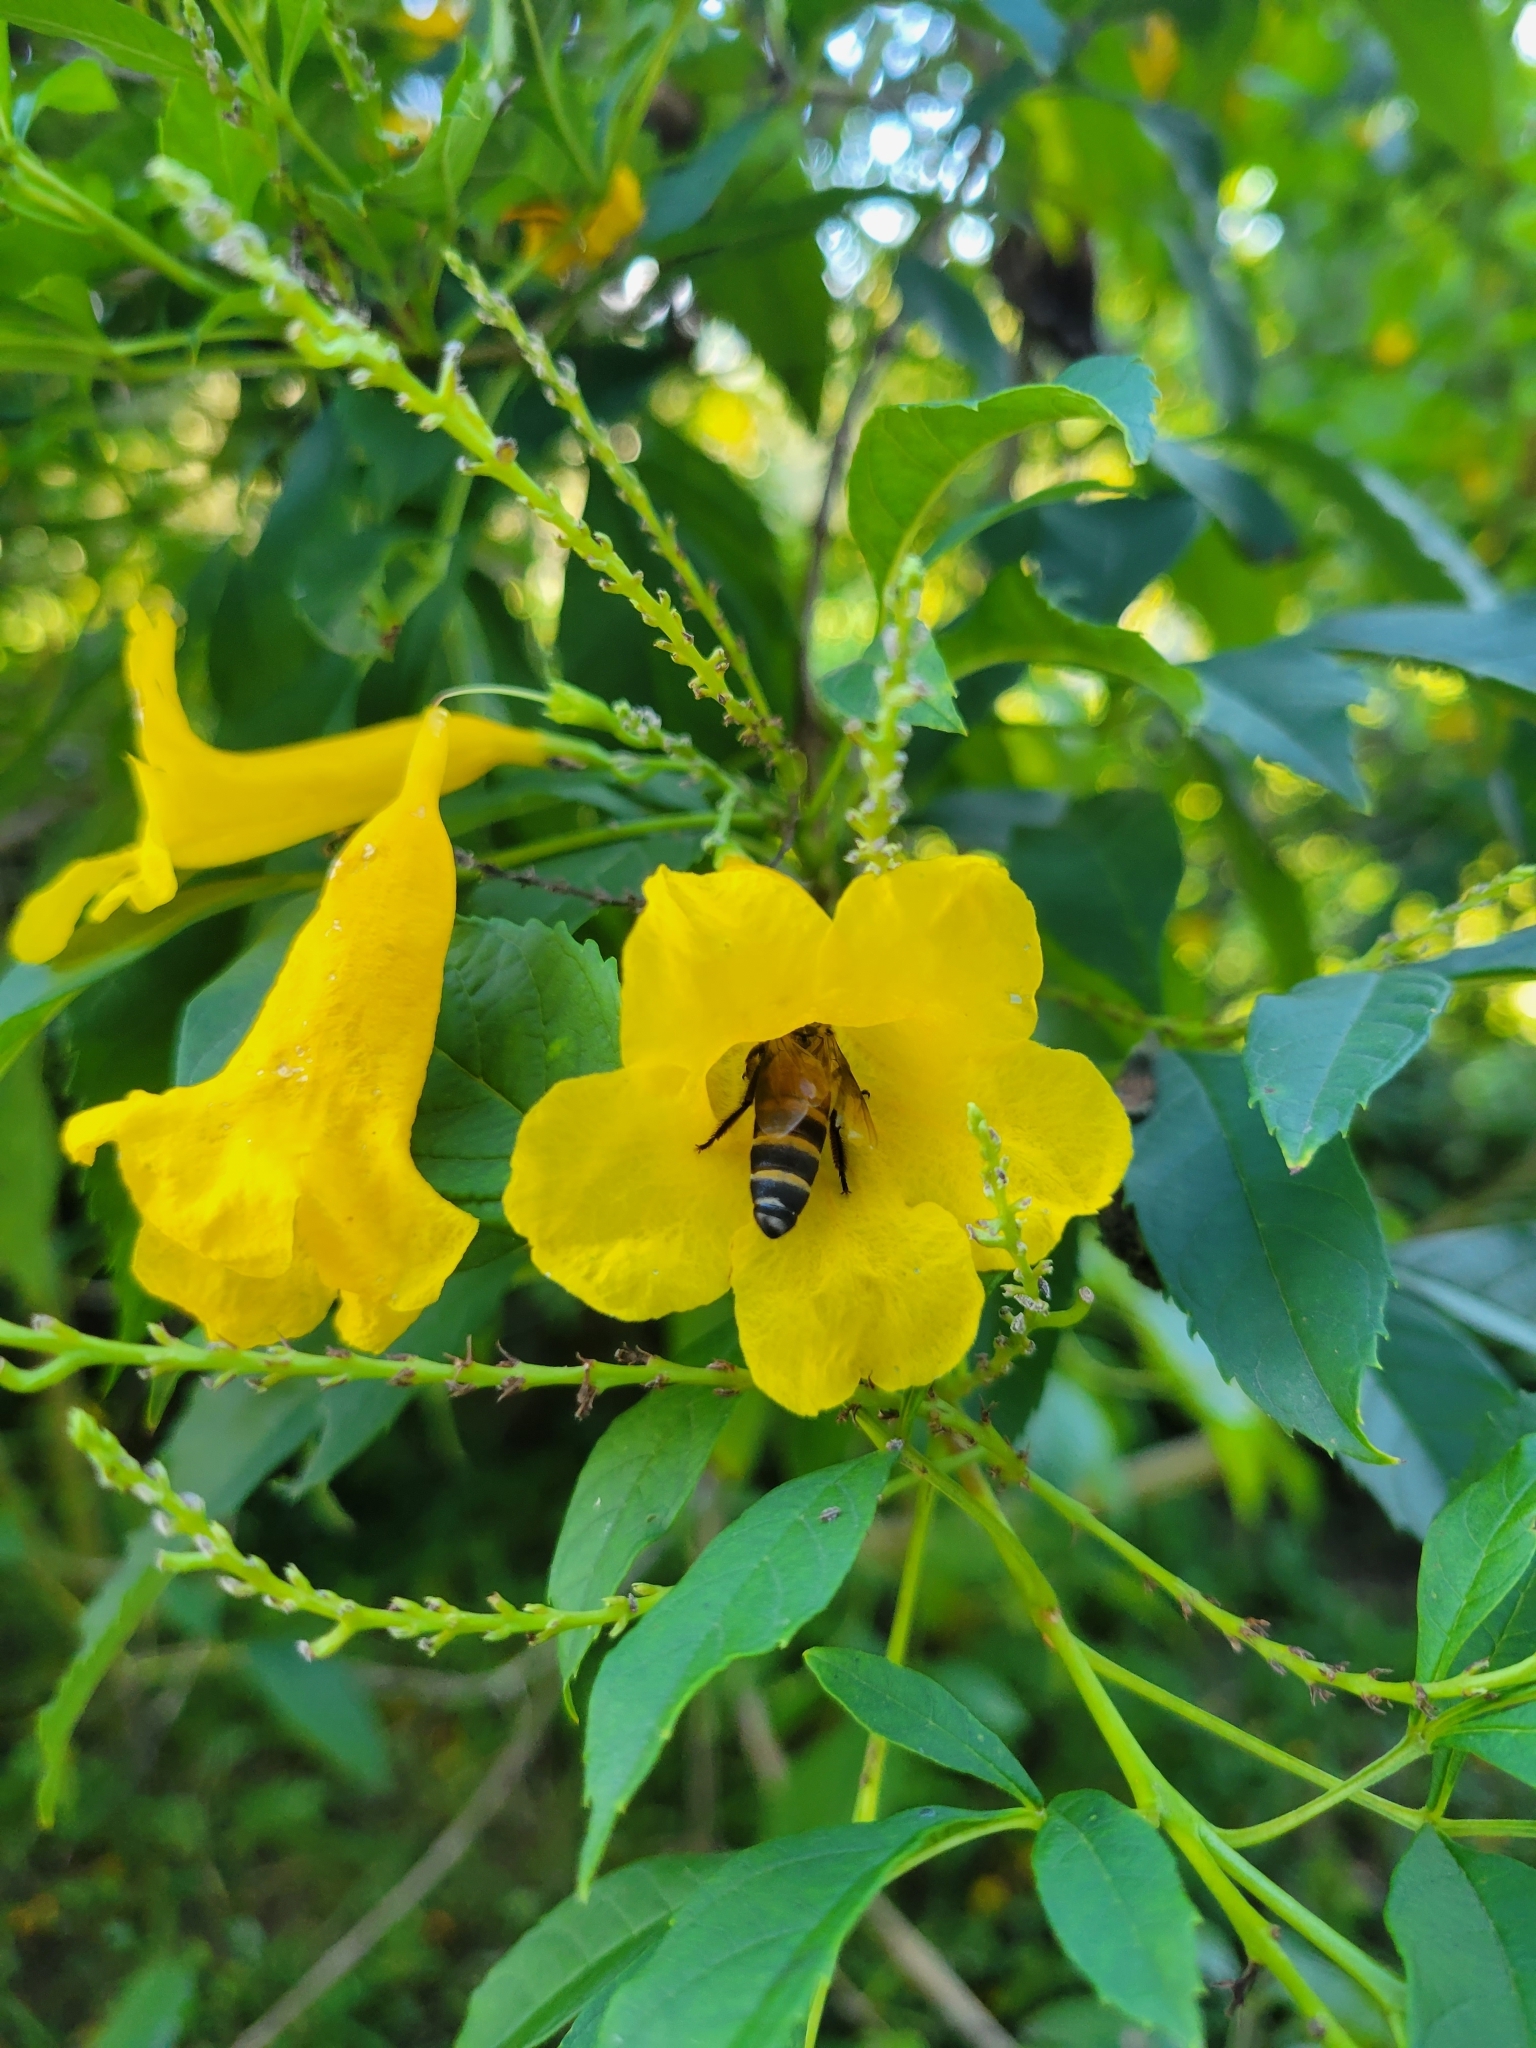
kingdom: Animalia
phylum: Arthropoda
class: Insecta
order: Hymenoptera
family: Apidae
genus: Apis
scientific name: Apis dorsata
